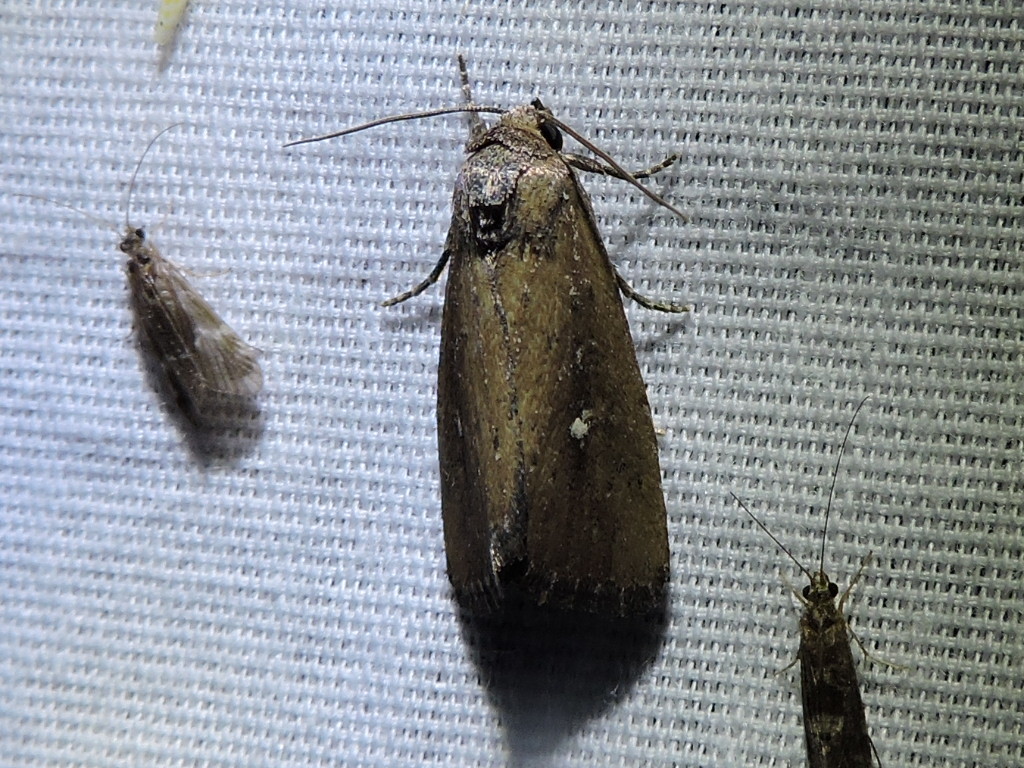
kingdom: Animalia
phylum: Arthropoda
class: Insecta
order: Lepidoptera
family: Noctuidae
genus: Condica
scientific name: Condica videns
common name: White-dotted groundling
